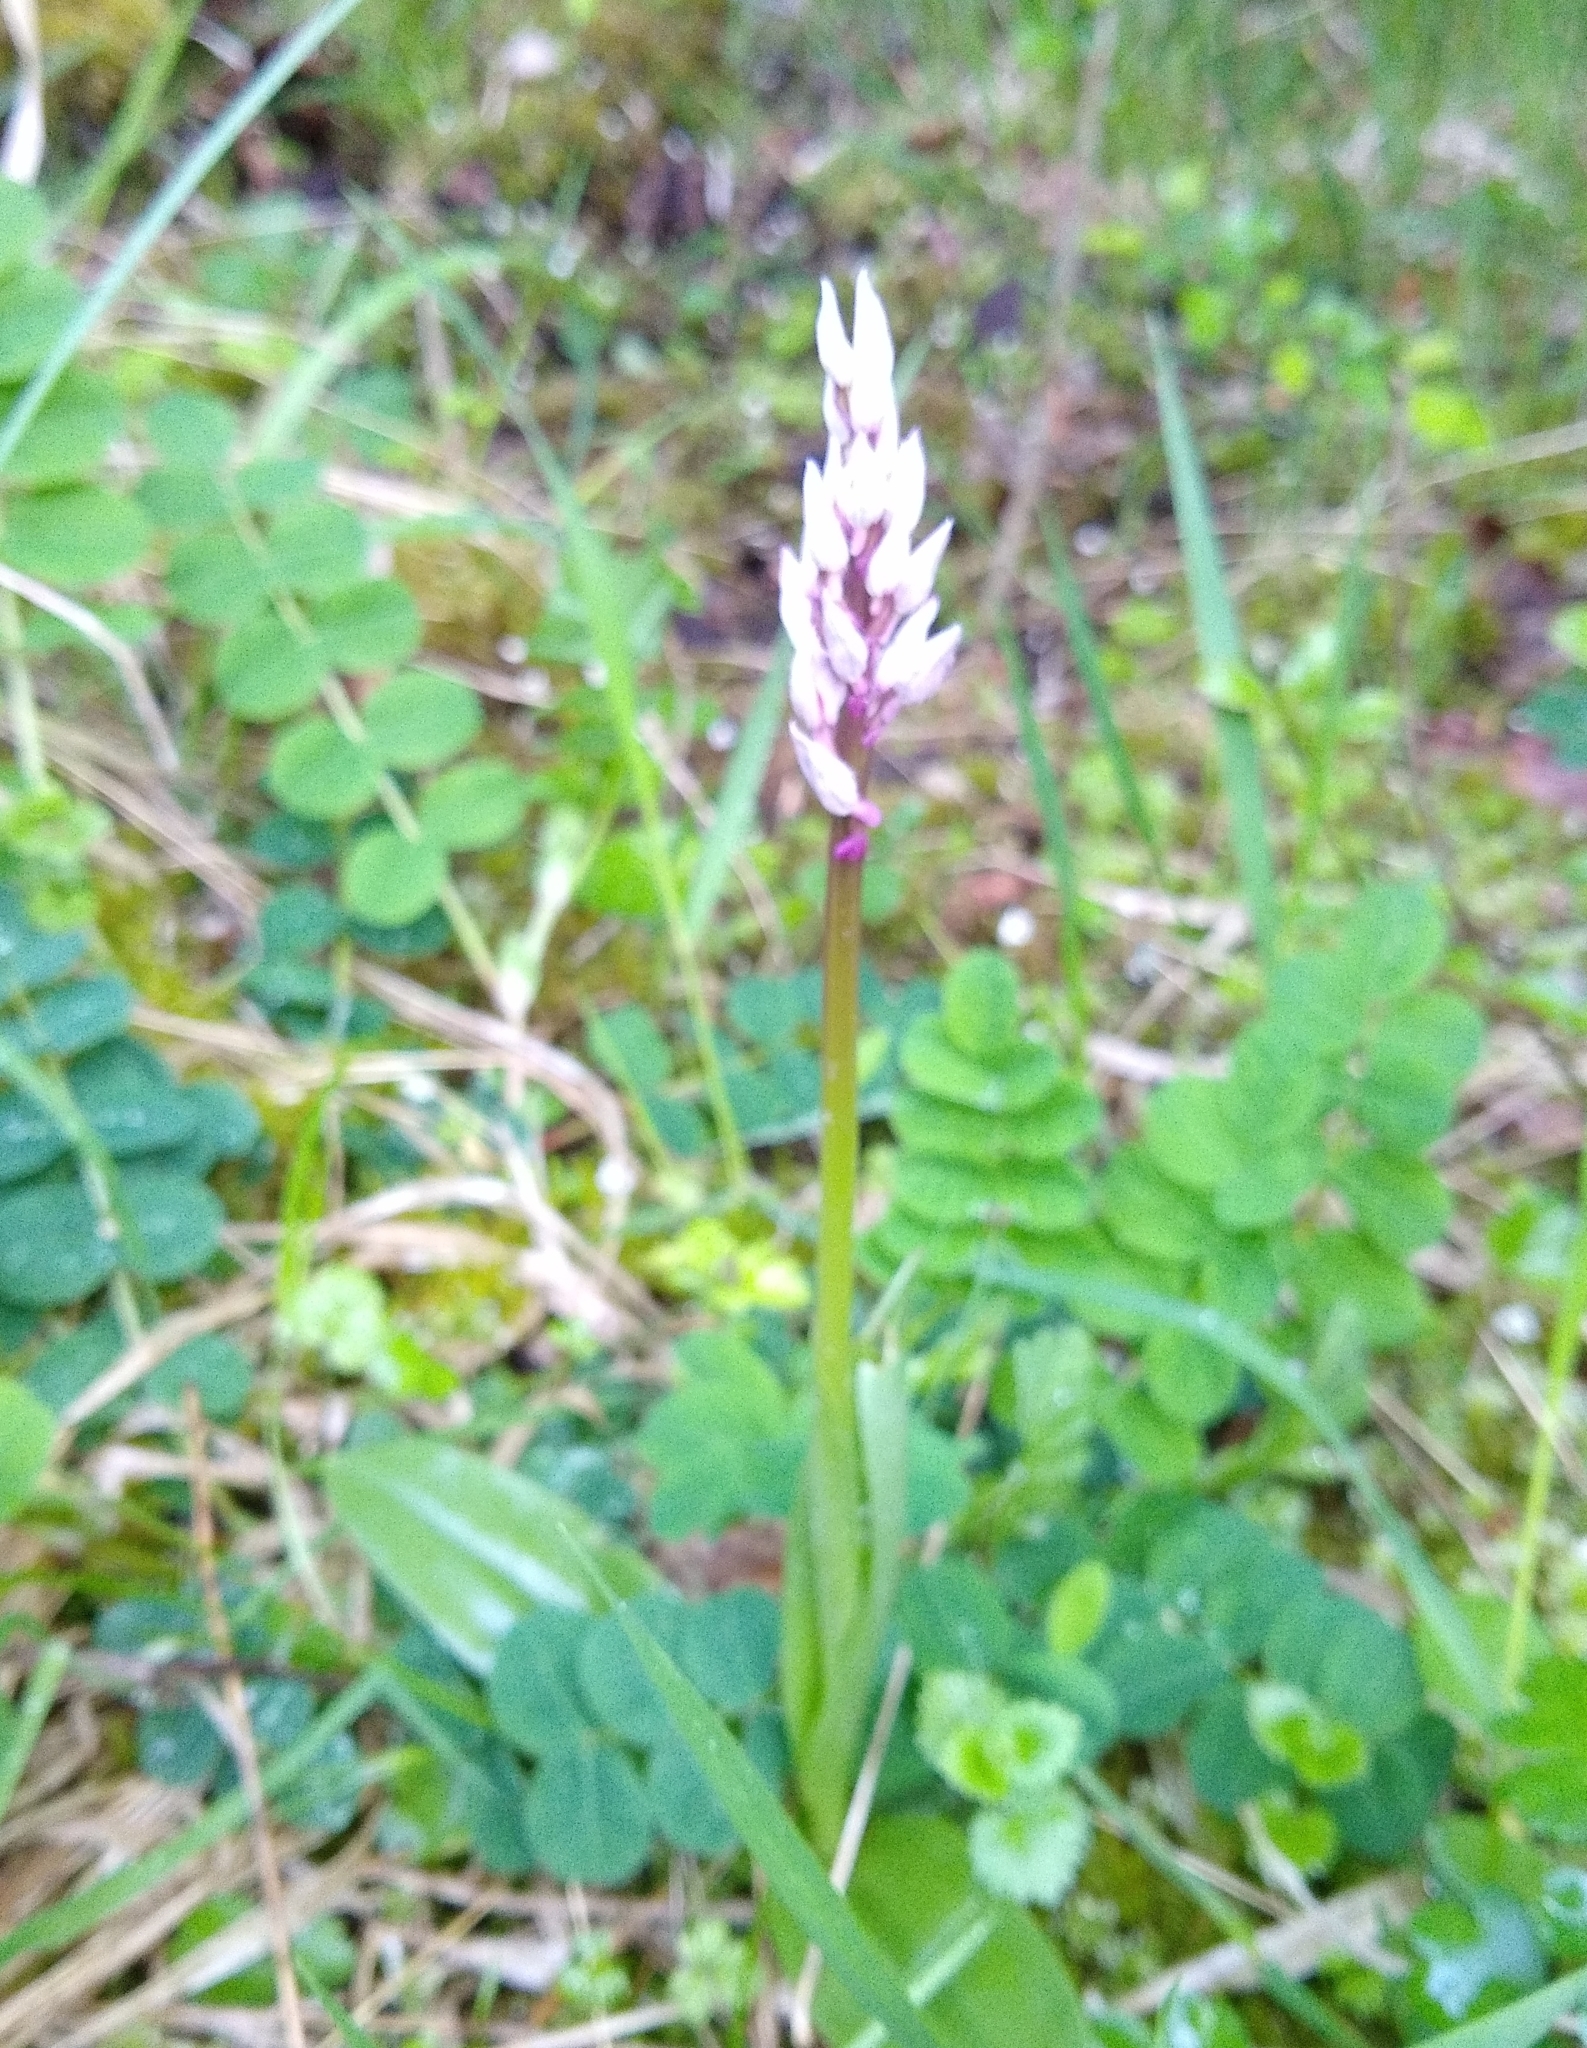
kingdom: Plantae
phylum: Tracheophyta
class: Liliopsida
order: Asparagales
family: Orchidaceae
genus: Orchis
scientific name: Orchis militaris
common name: Military orchid
